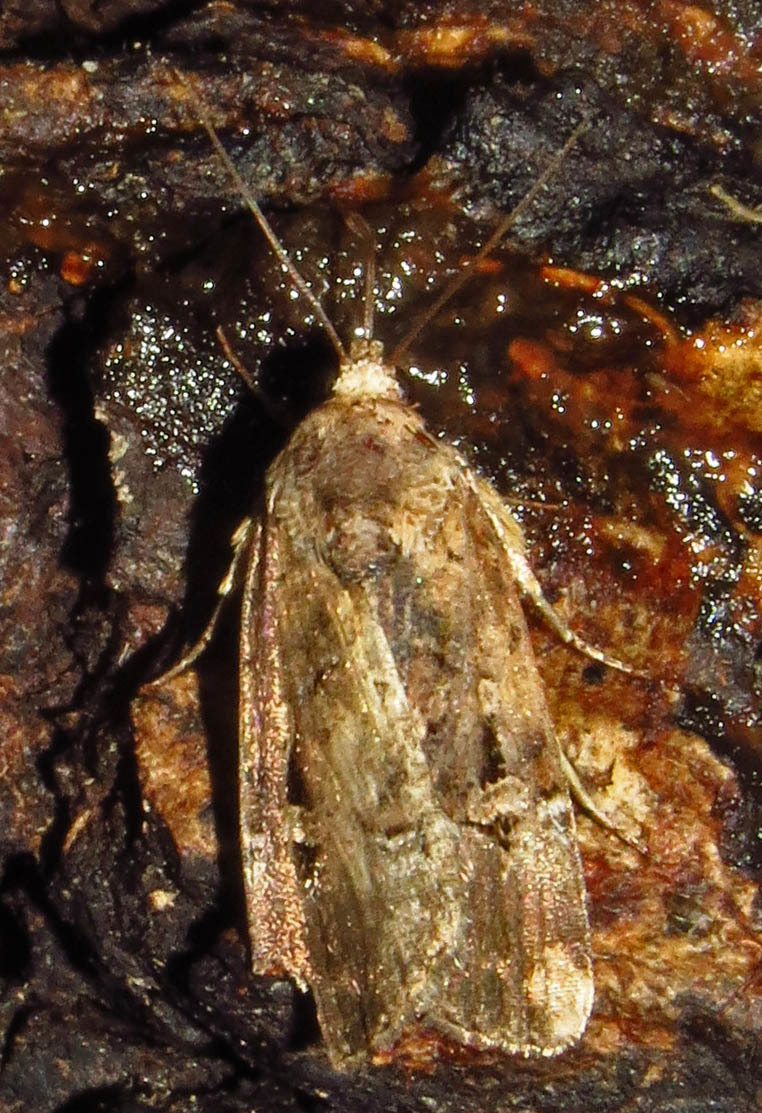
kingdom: Animalia
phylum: Arthropoda
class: Insecta
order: Lepidoptera
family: Noctuidae
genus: Elaphria
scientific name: Elaphria chalcedonia
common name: Chalcedony midget
